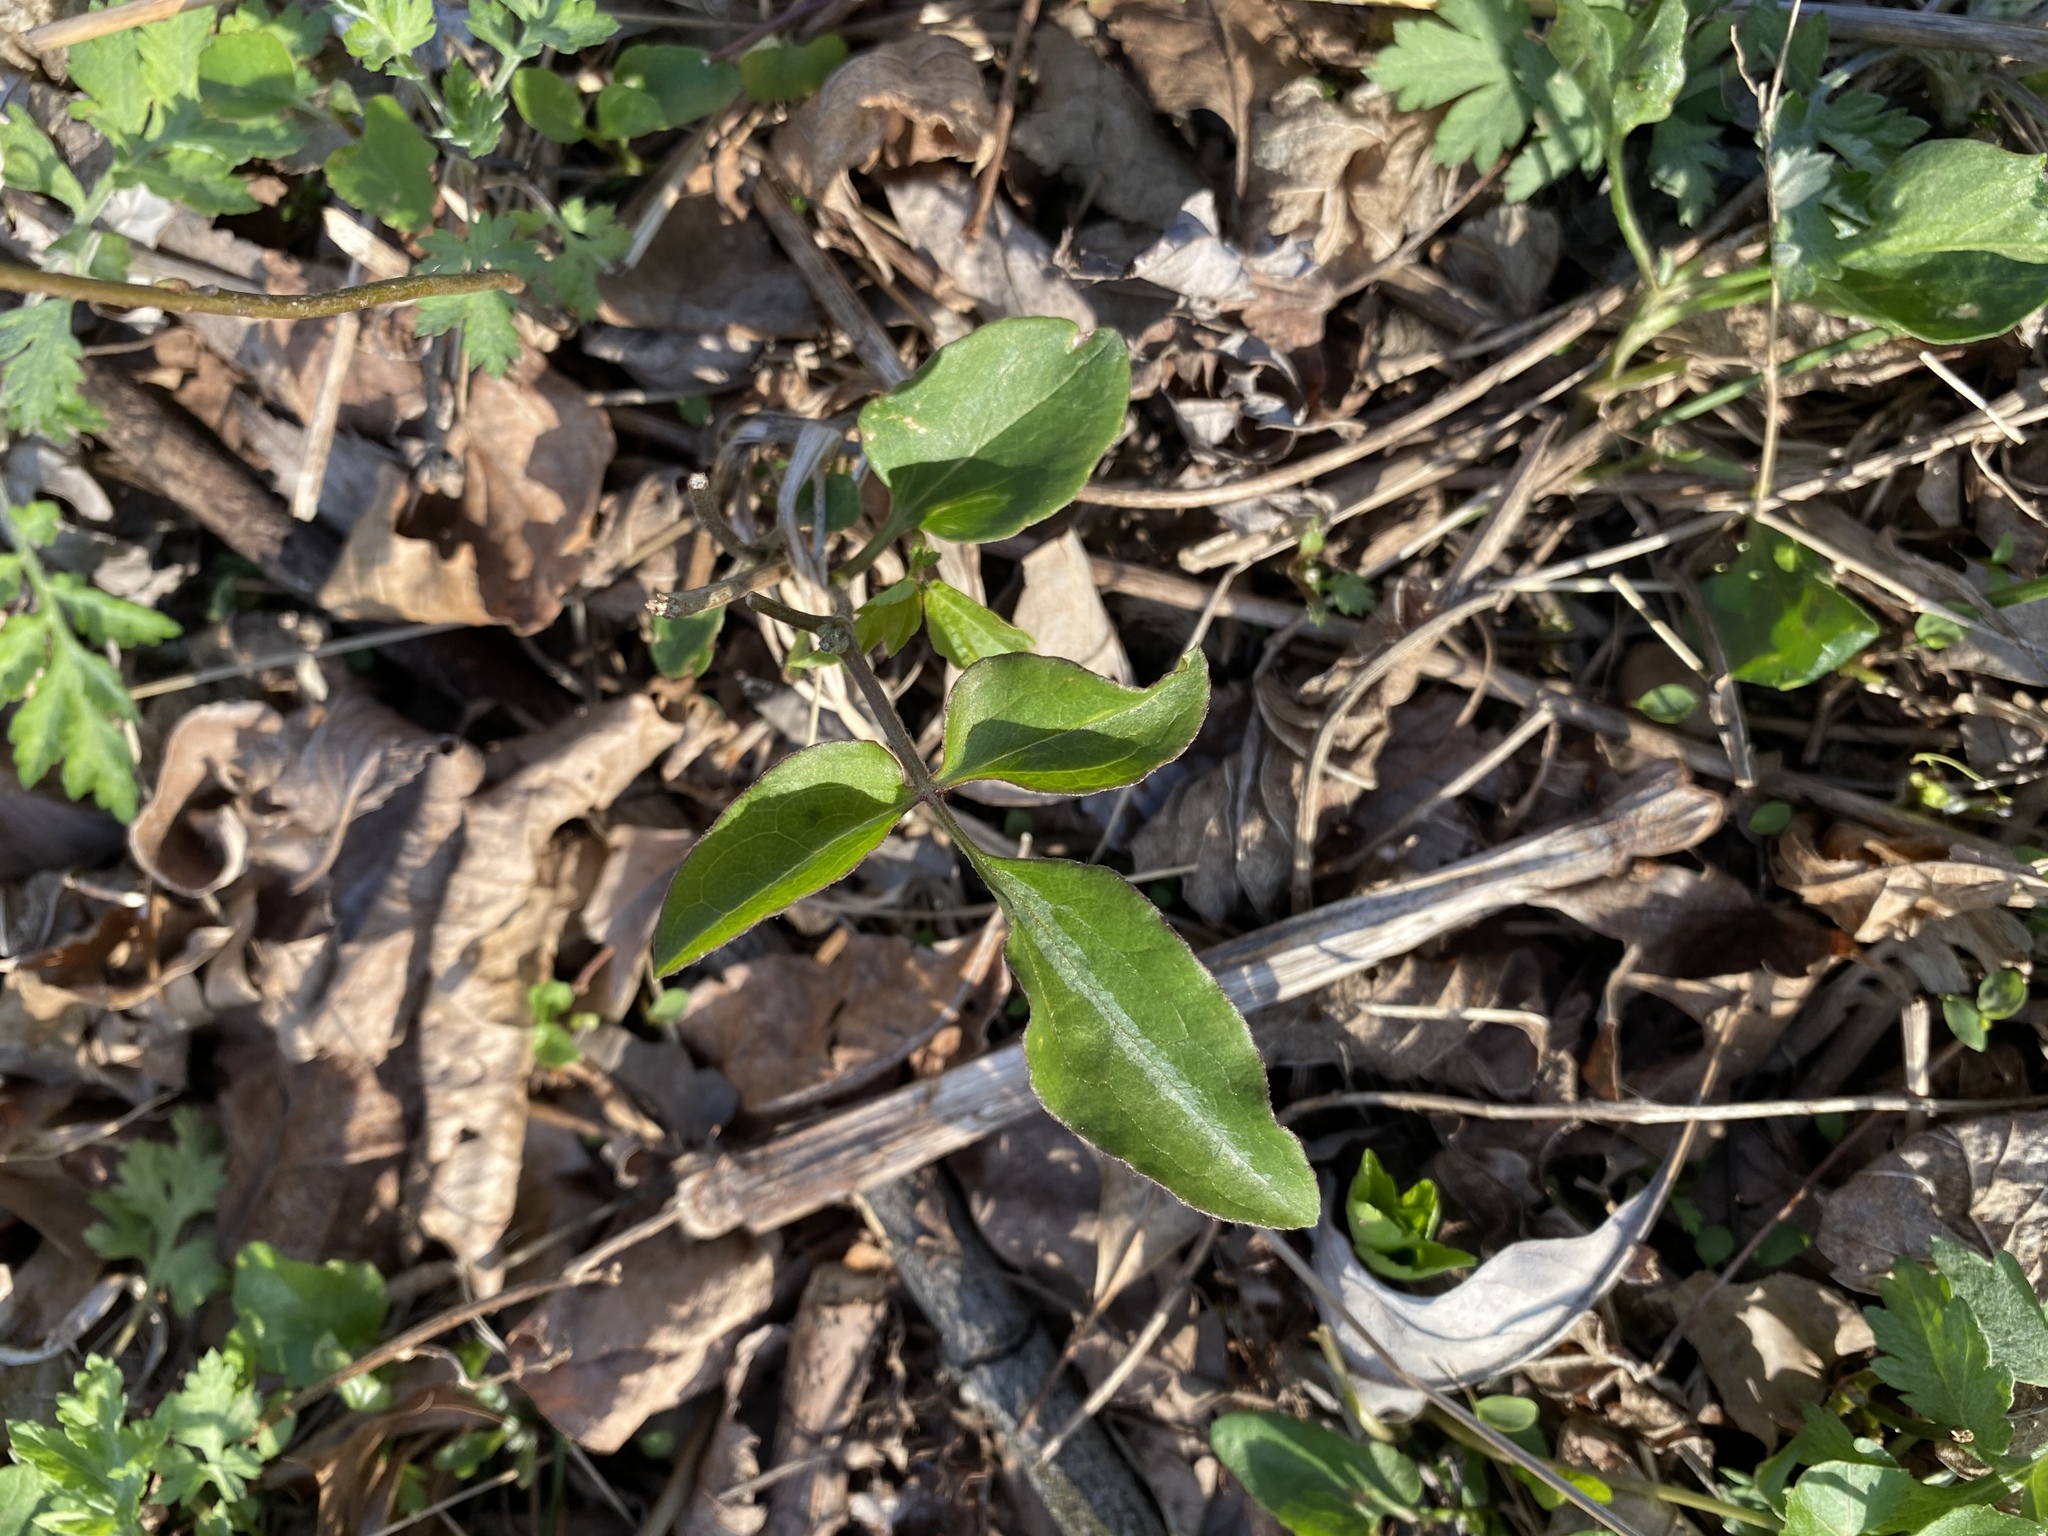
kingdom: Plantae
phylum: Tracheophyta
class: Magnoliopsida
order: Ranunculales
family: Ranunculaceae
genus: Clematis
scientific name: Clematis terniflora
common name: Sweet autumn clematis
